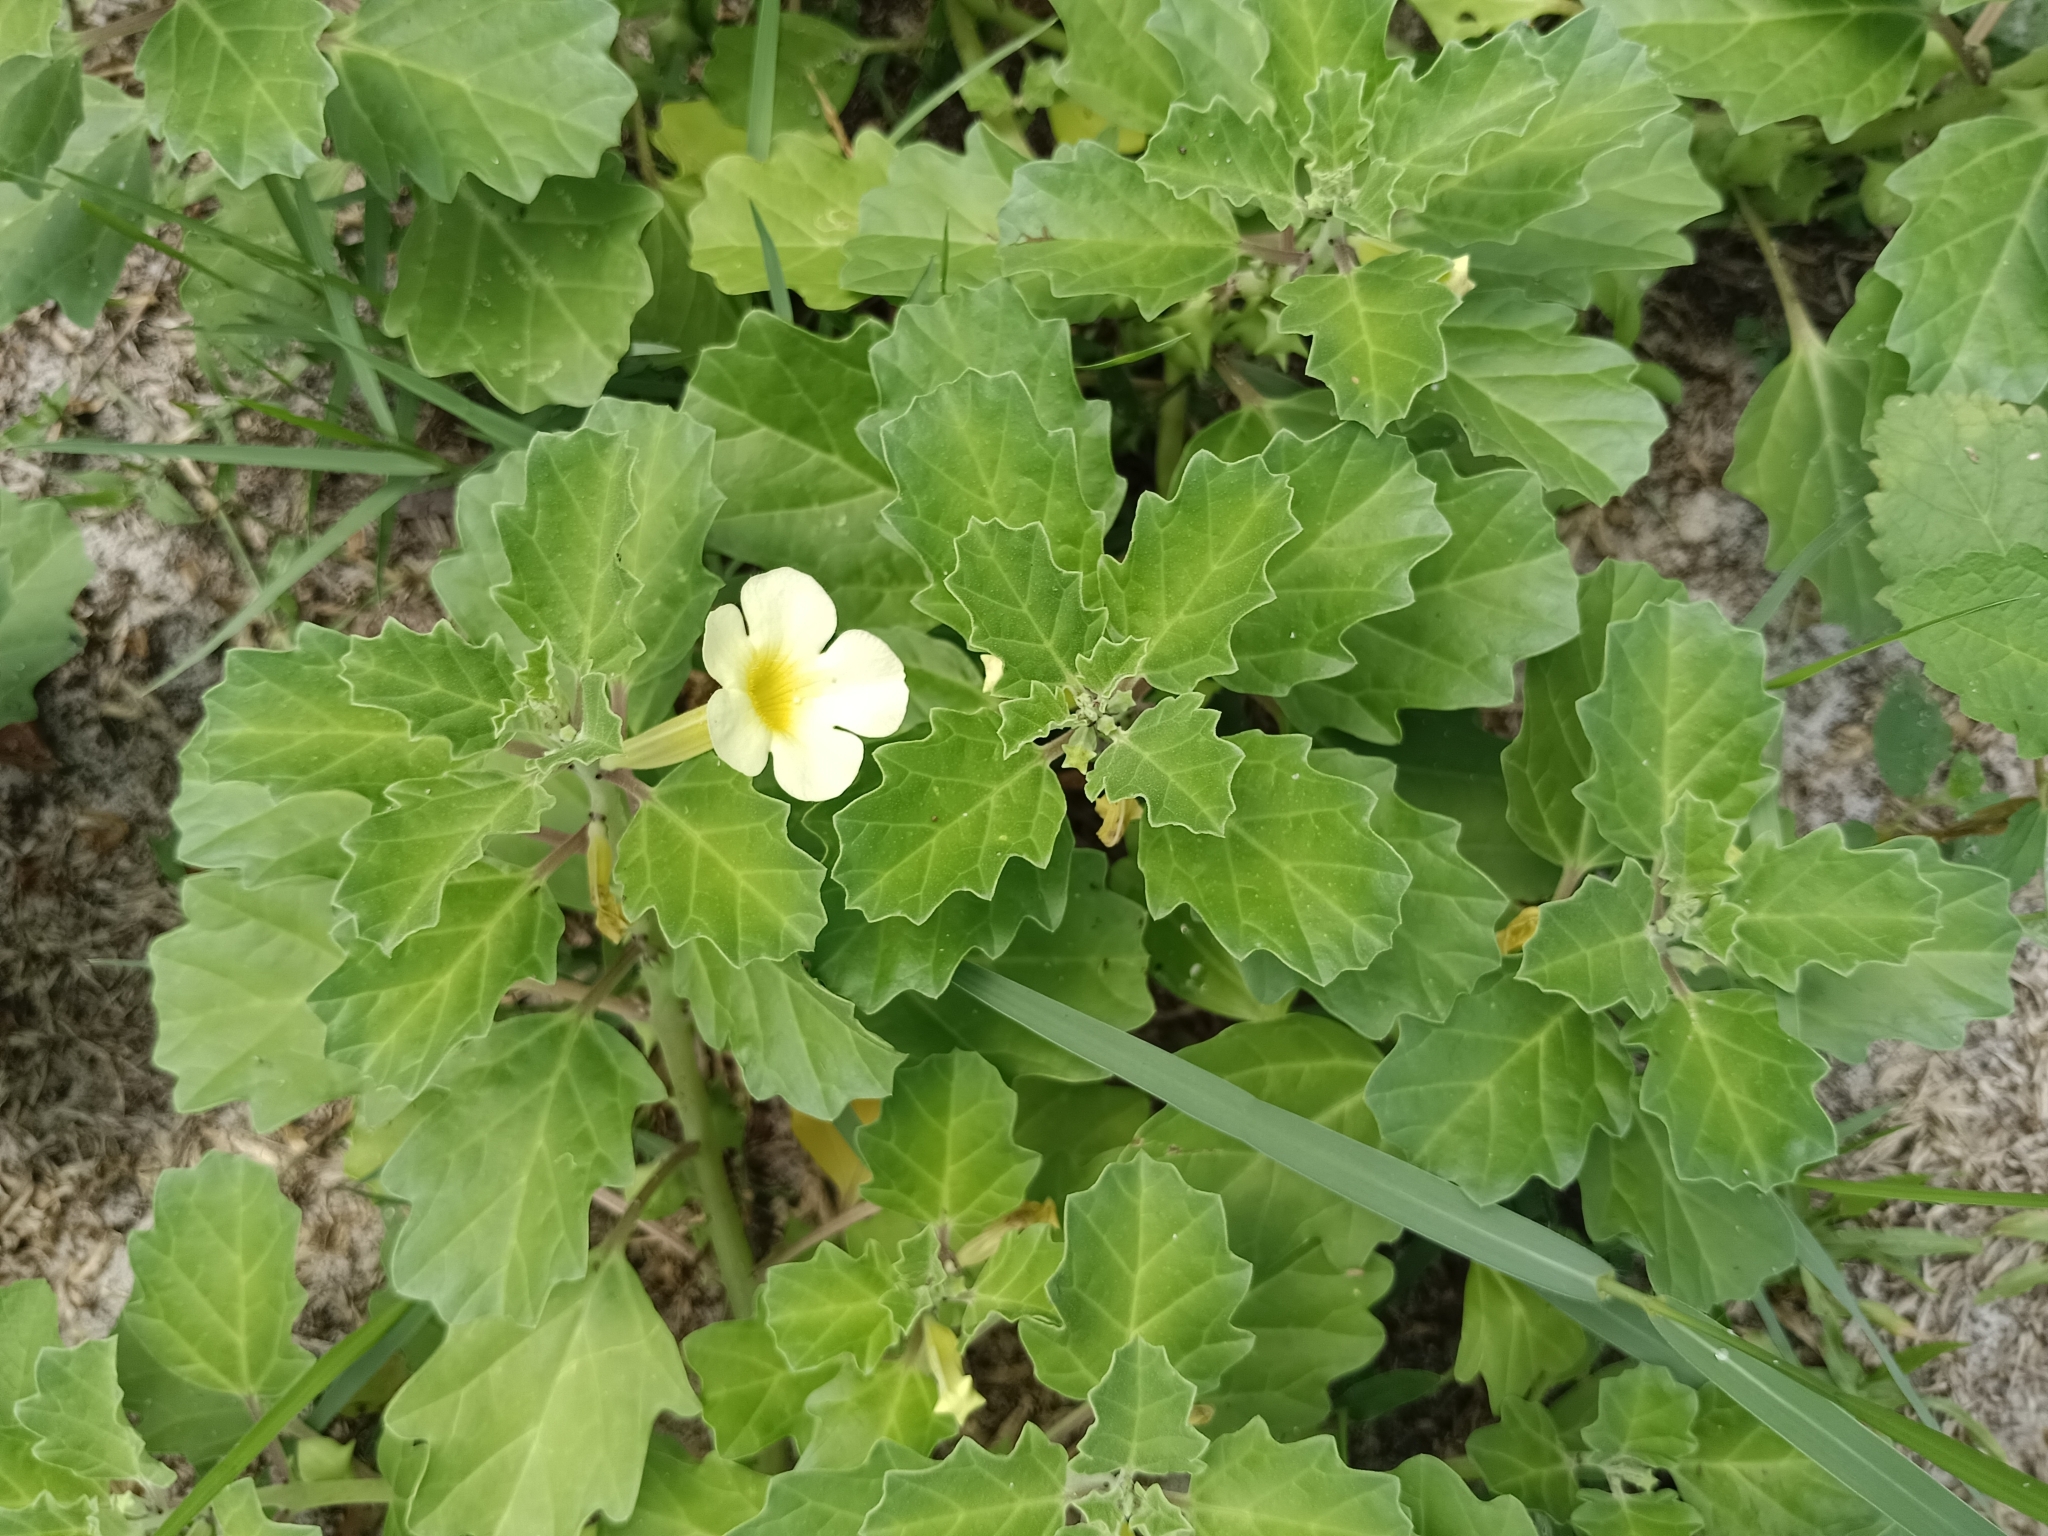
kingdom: Plantae
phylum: Tracheophyta
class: Magnoliopsida
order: Lamiales
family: Pedaliaceae
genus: Pedalium
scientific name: Pedalium murex
